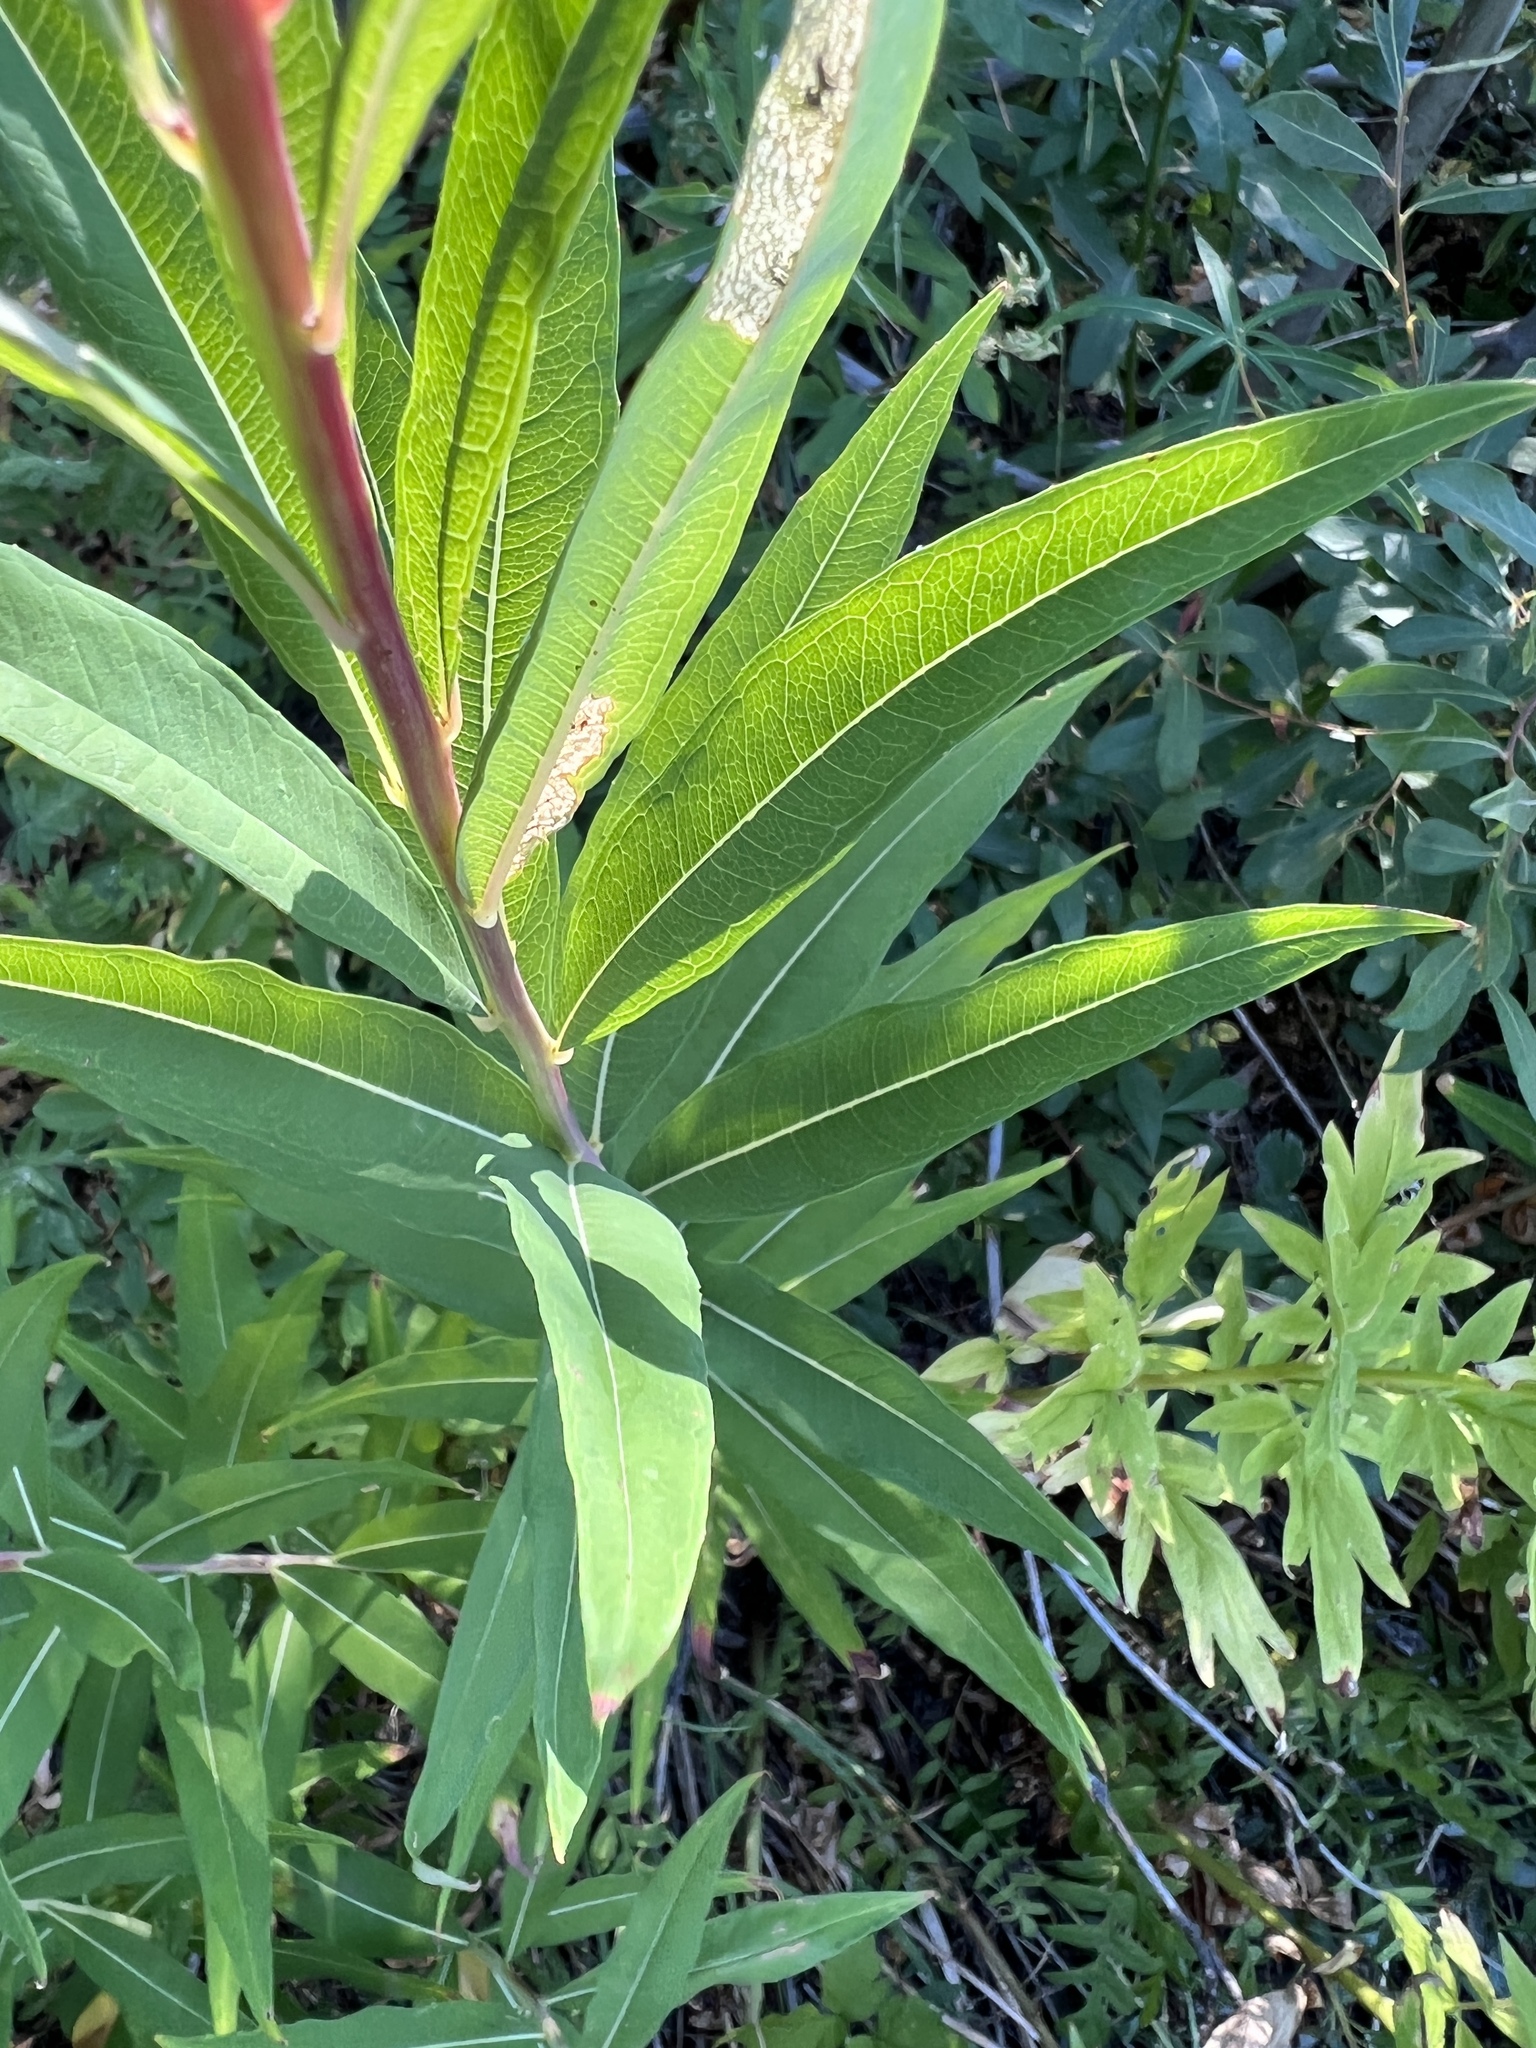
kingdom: Plantae
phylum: Tracheophyta
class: Magnoliopsida
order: Myrtales
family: Onagraceae
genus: Chamaenerion
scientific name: Chamaenerion angustifolium
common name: Fireweed
